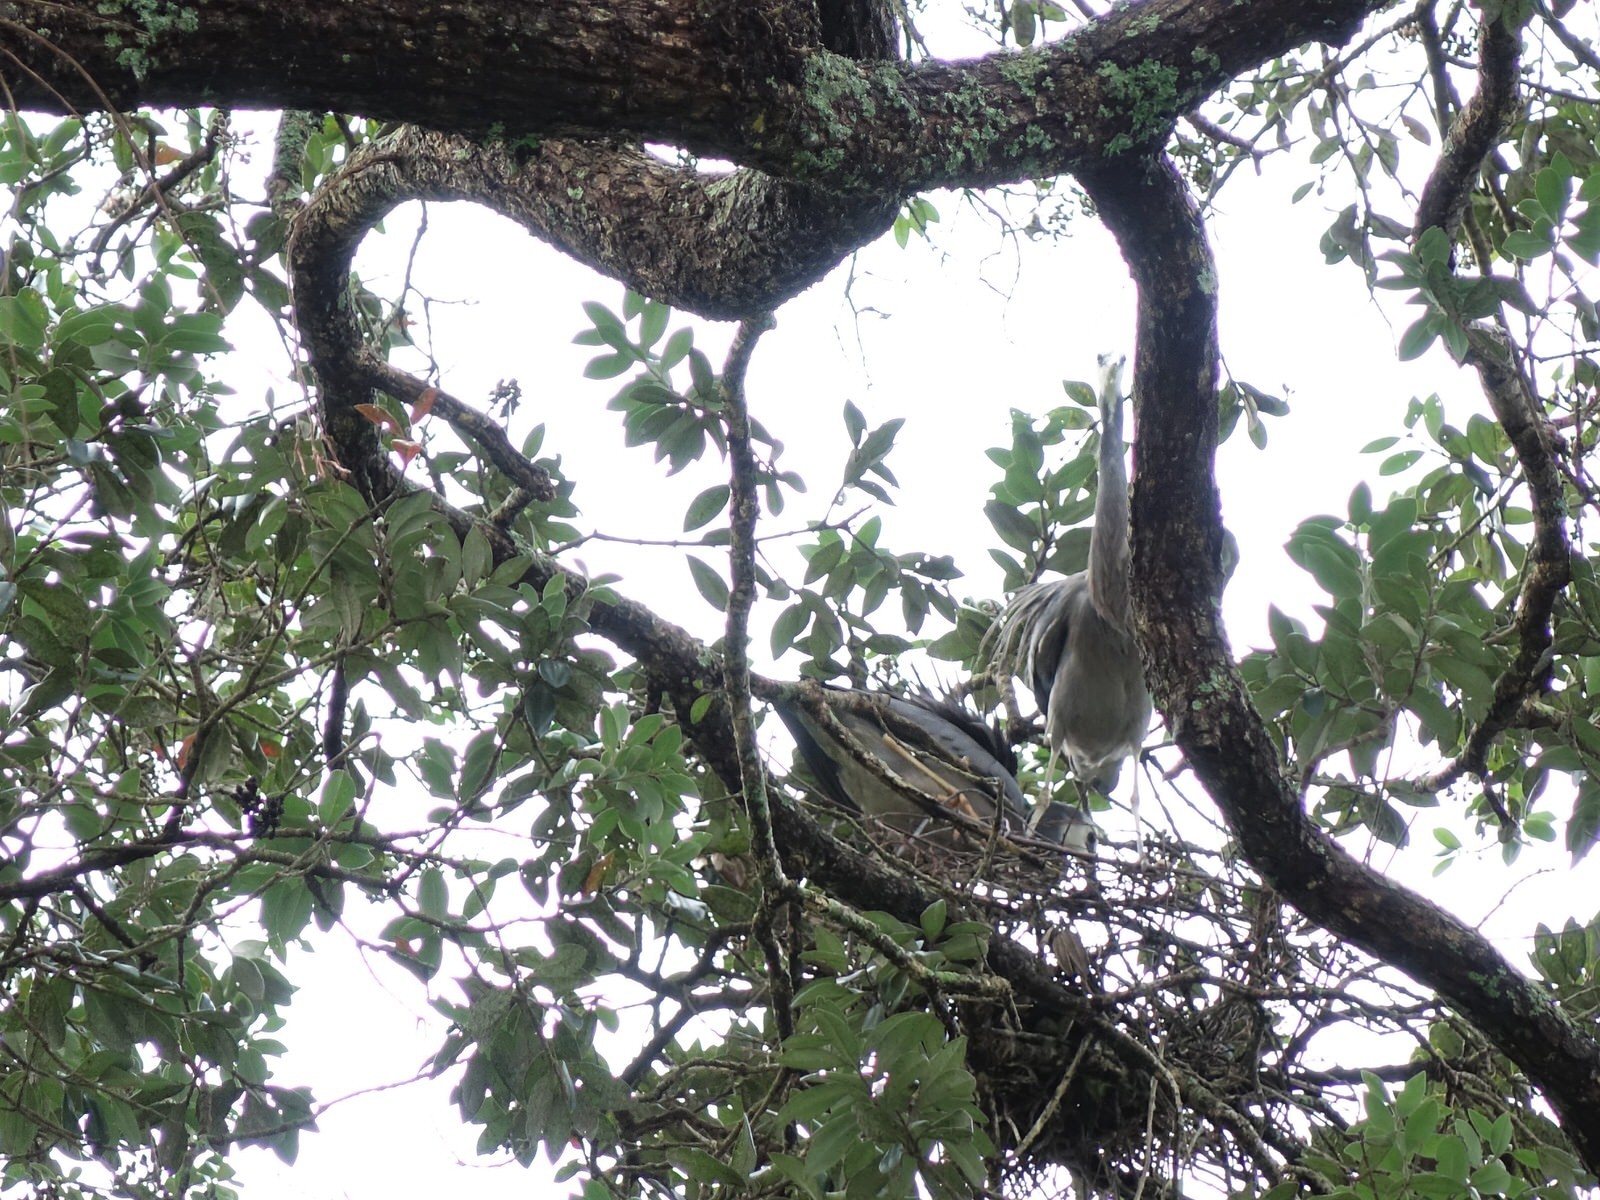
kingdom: Animalia
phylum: Chordata
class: Aves
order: Pelecaniformes
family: Ardeidae
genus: Egretta
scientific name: Egretta novaehollandiae
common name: White-faced heron
